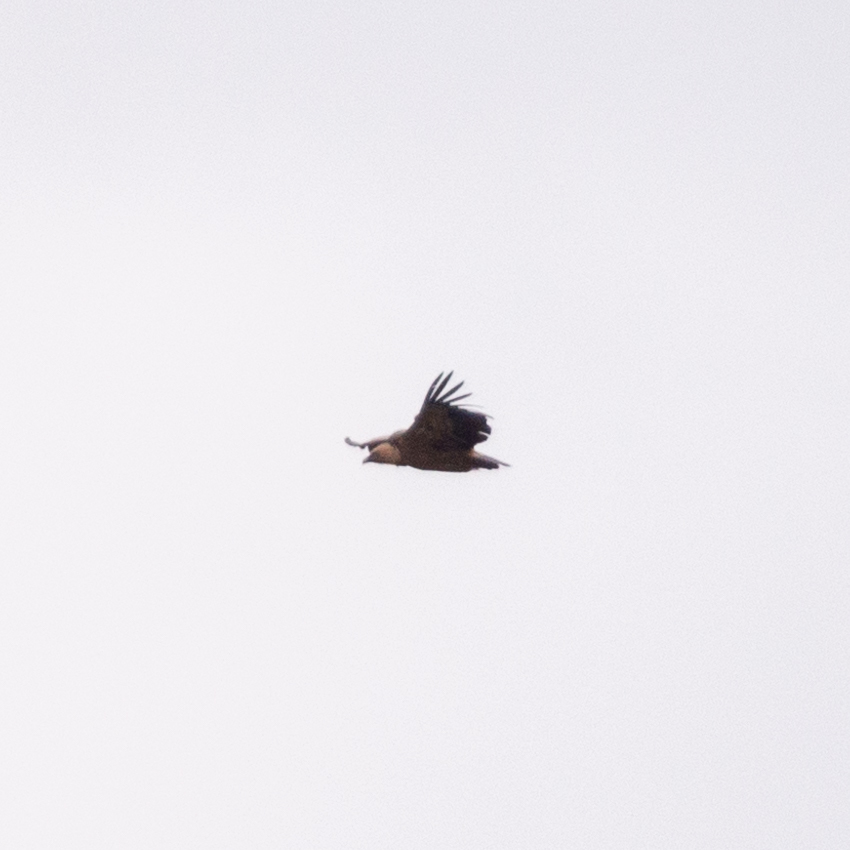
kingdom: Animalia
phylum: Chordata
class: Aves
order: Accipitriformes
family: Accipitridae
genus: Gyps
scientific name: Gyps fulvus
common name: Griffon vulture
